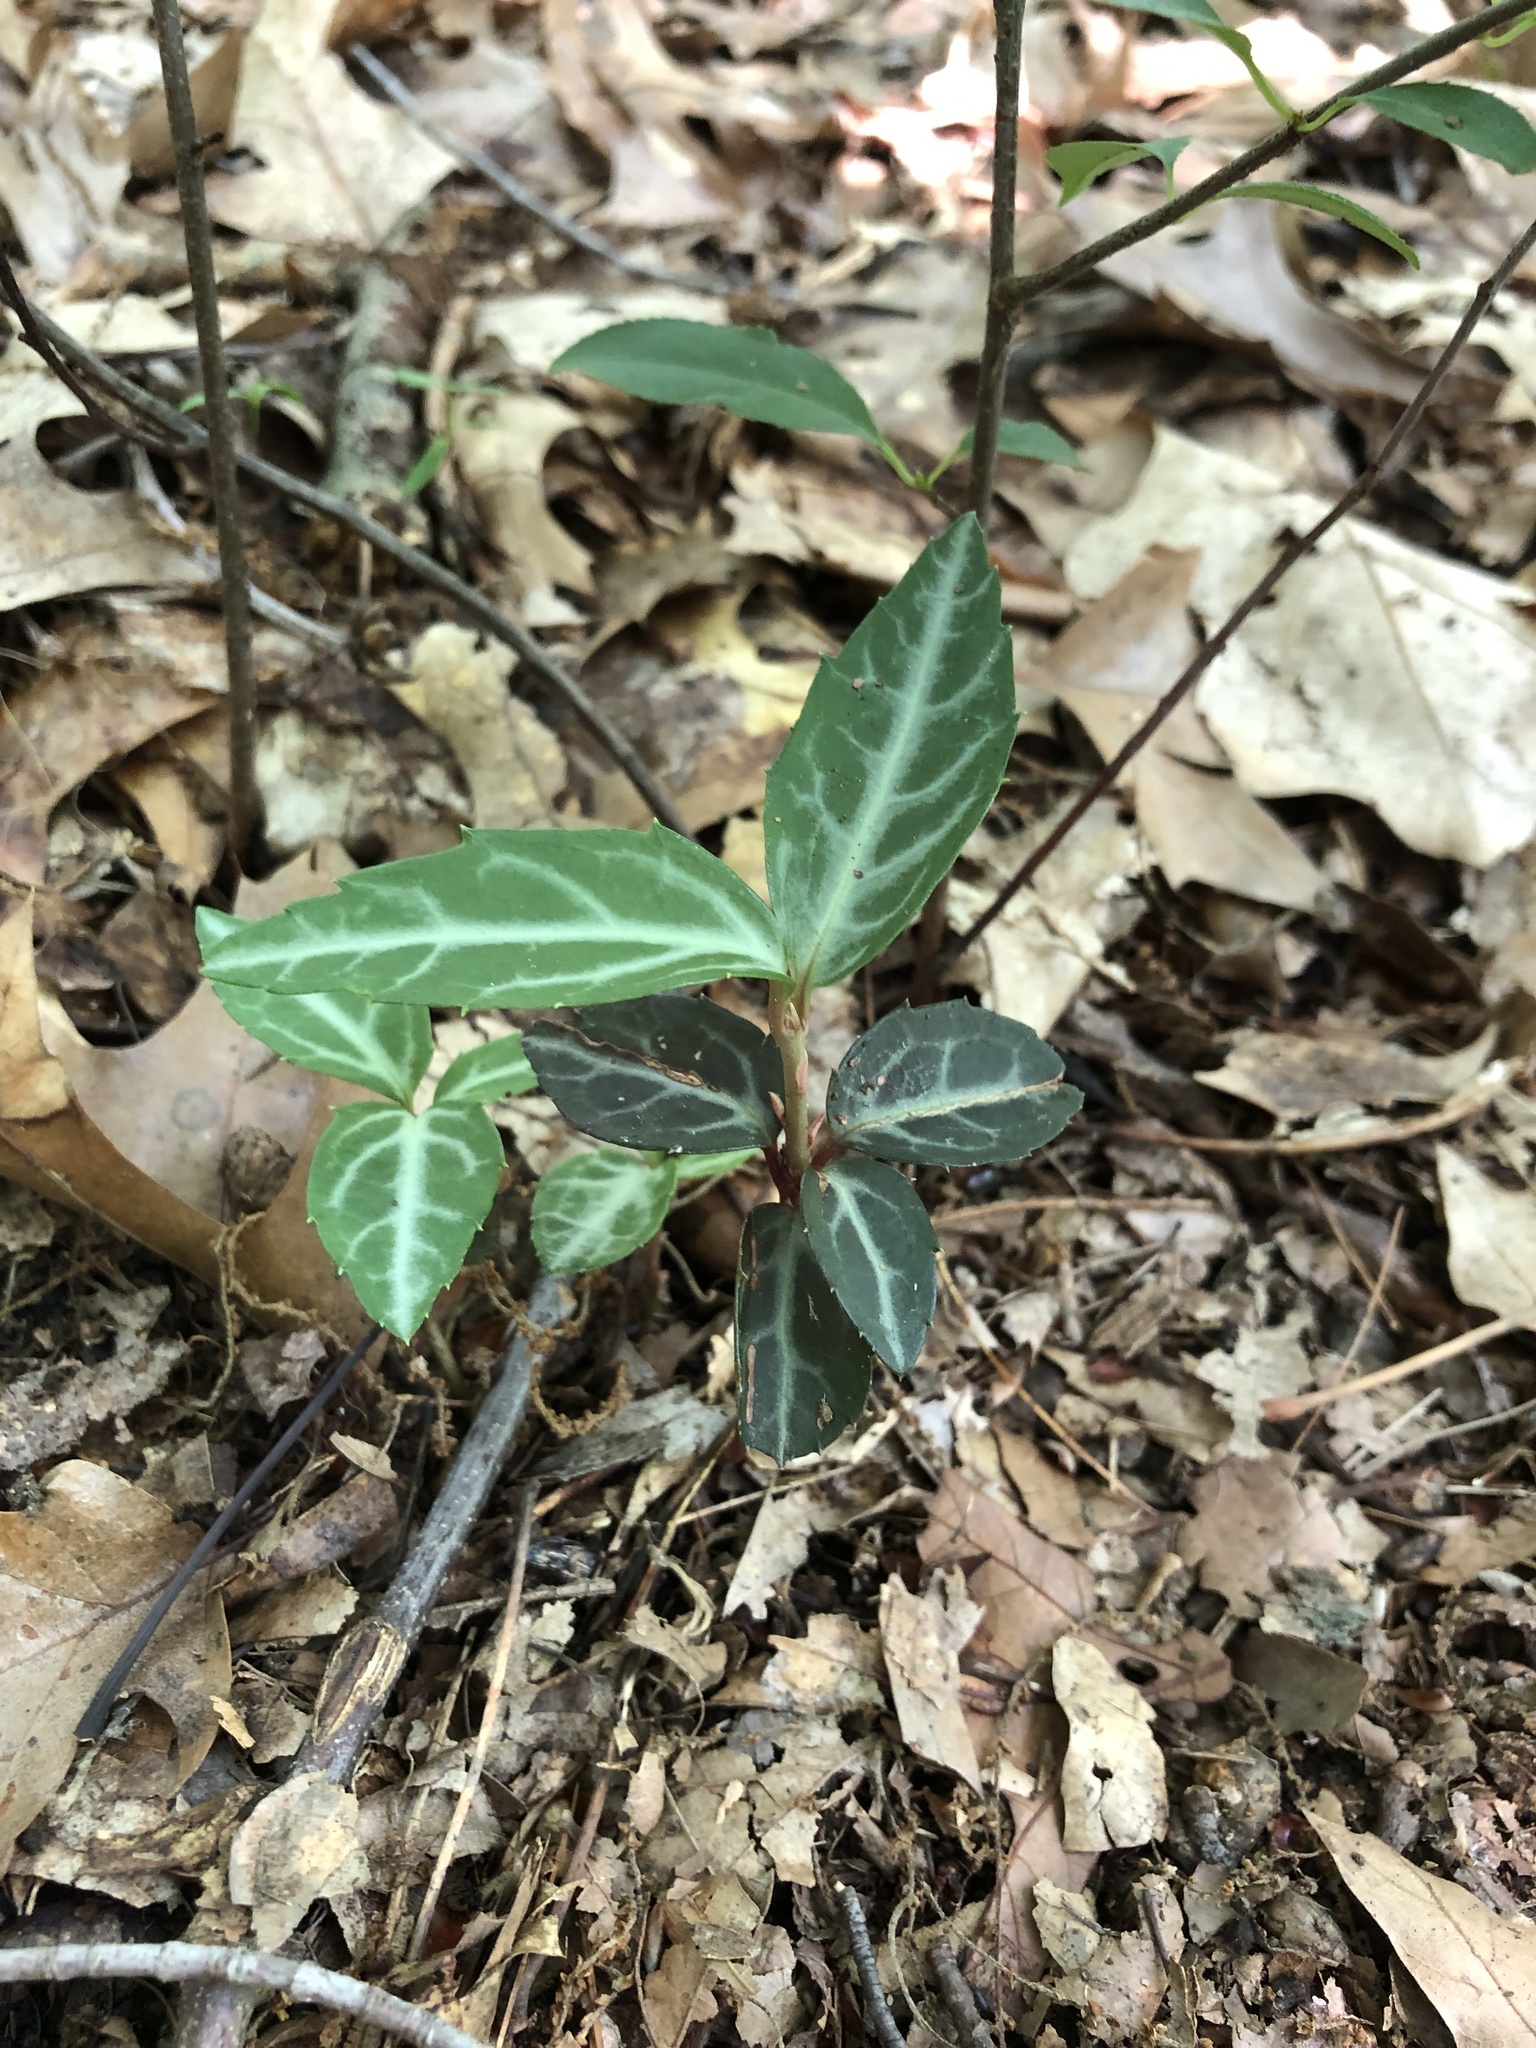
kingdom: Plantae
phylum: Tracheophyta
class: Magnoliopsida
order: Ericales
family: Ericaceae
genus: Chimaphila
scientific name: Chimaphila maculata
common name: Spotted pipsissewa
